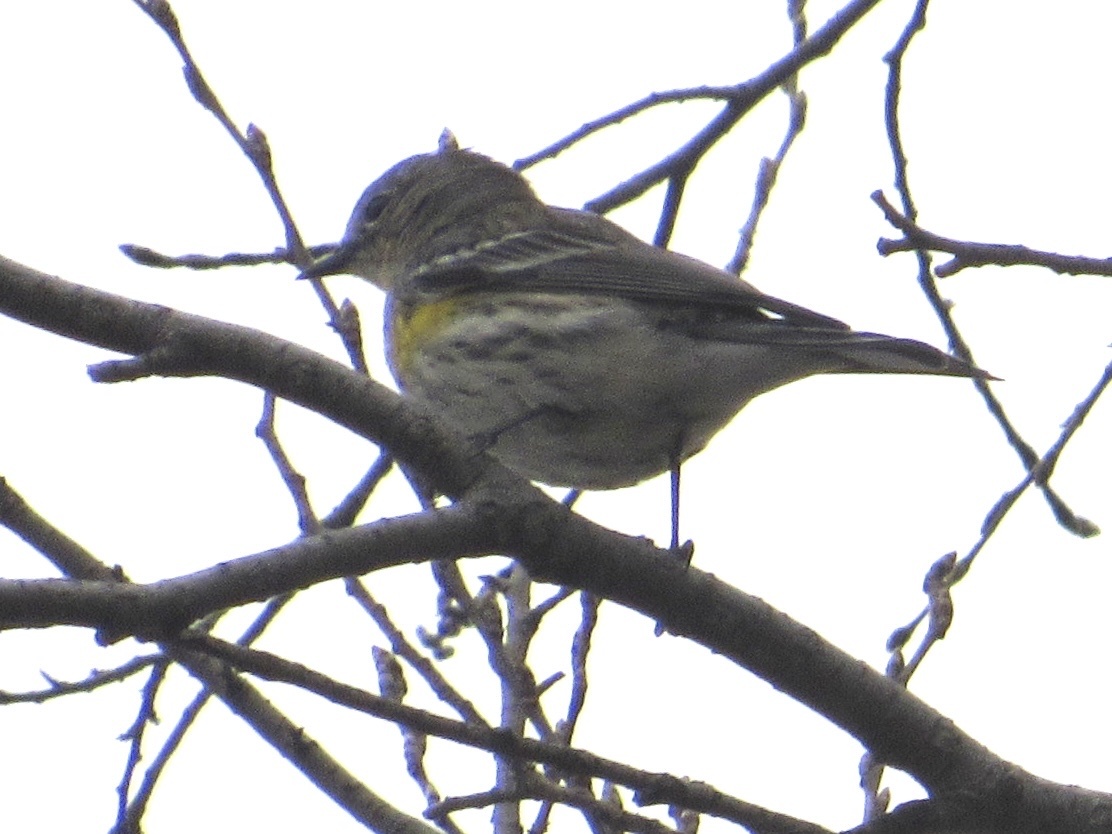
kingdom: Animalia
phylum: Chordata
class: Aves
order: Passeriformes
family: Parulidae
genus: Setophaga
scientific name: Setophaga coronata
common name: Myrtle warbler
